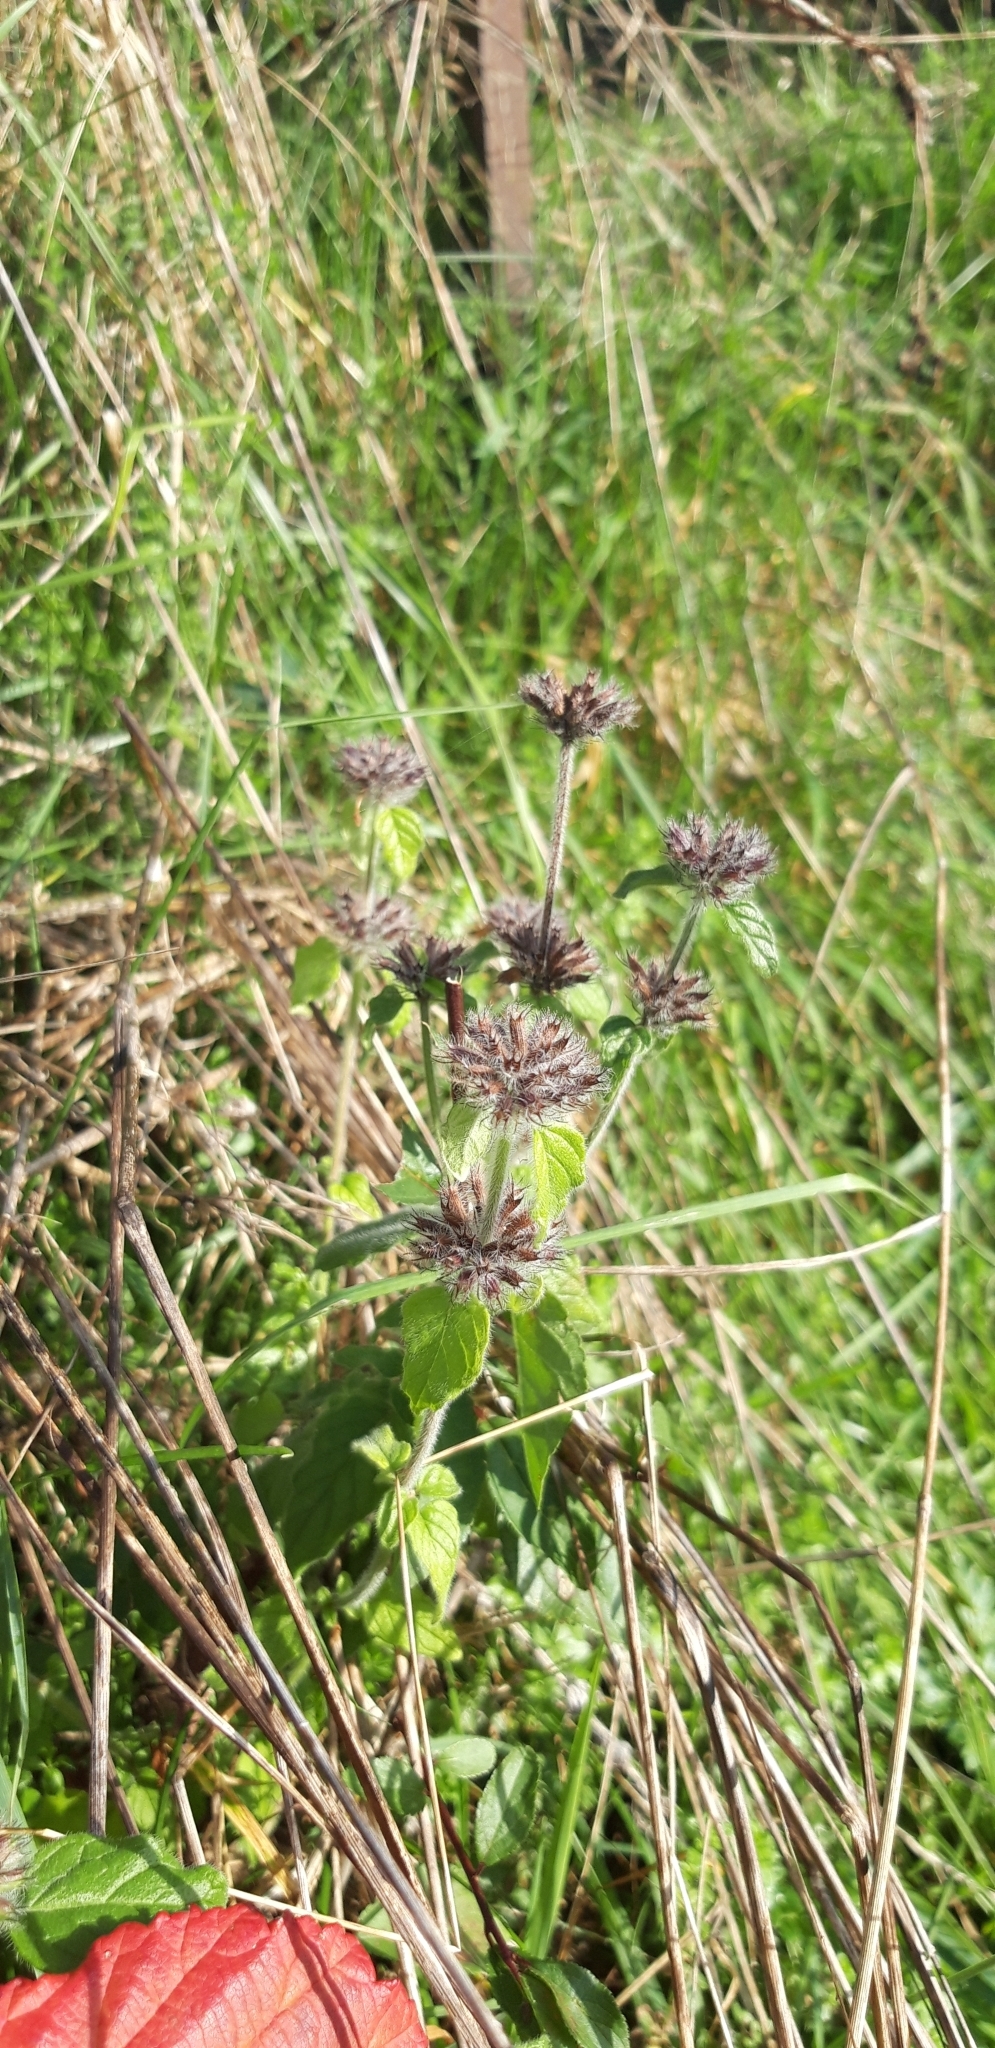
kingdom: Plantae
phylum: Tracheophyta
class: Magnoliopsida
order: Lamiales
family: Lamiaceae
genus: Clinopodium
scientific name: Clinopodium vulgare
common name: Wild basil
